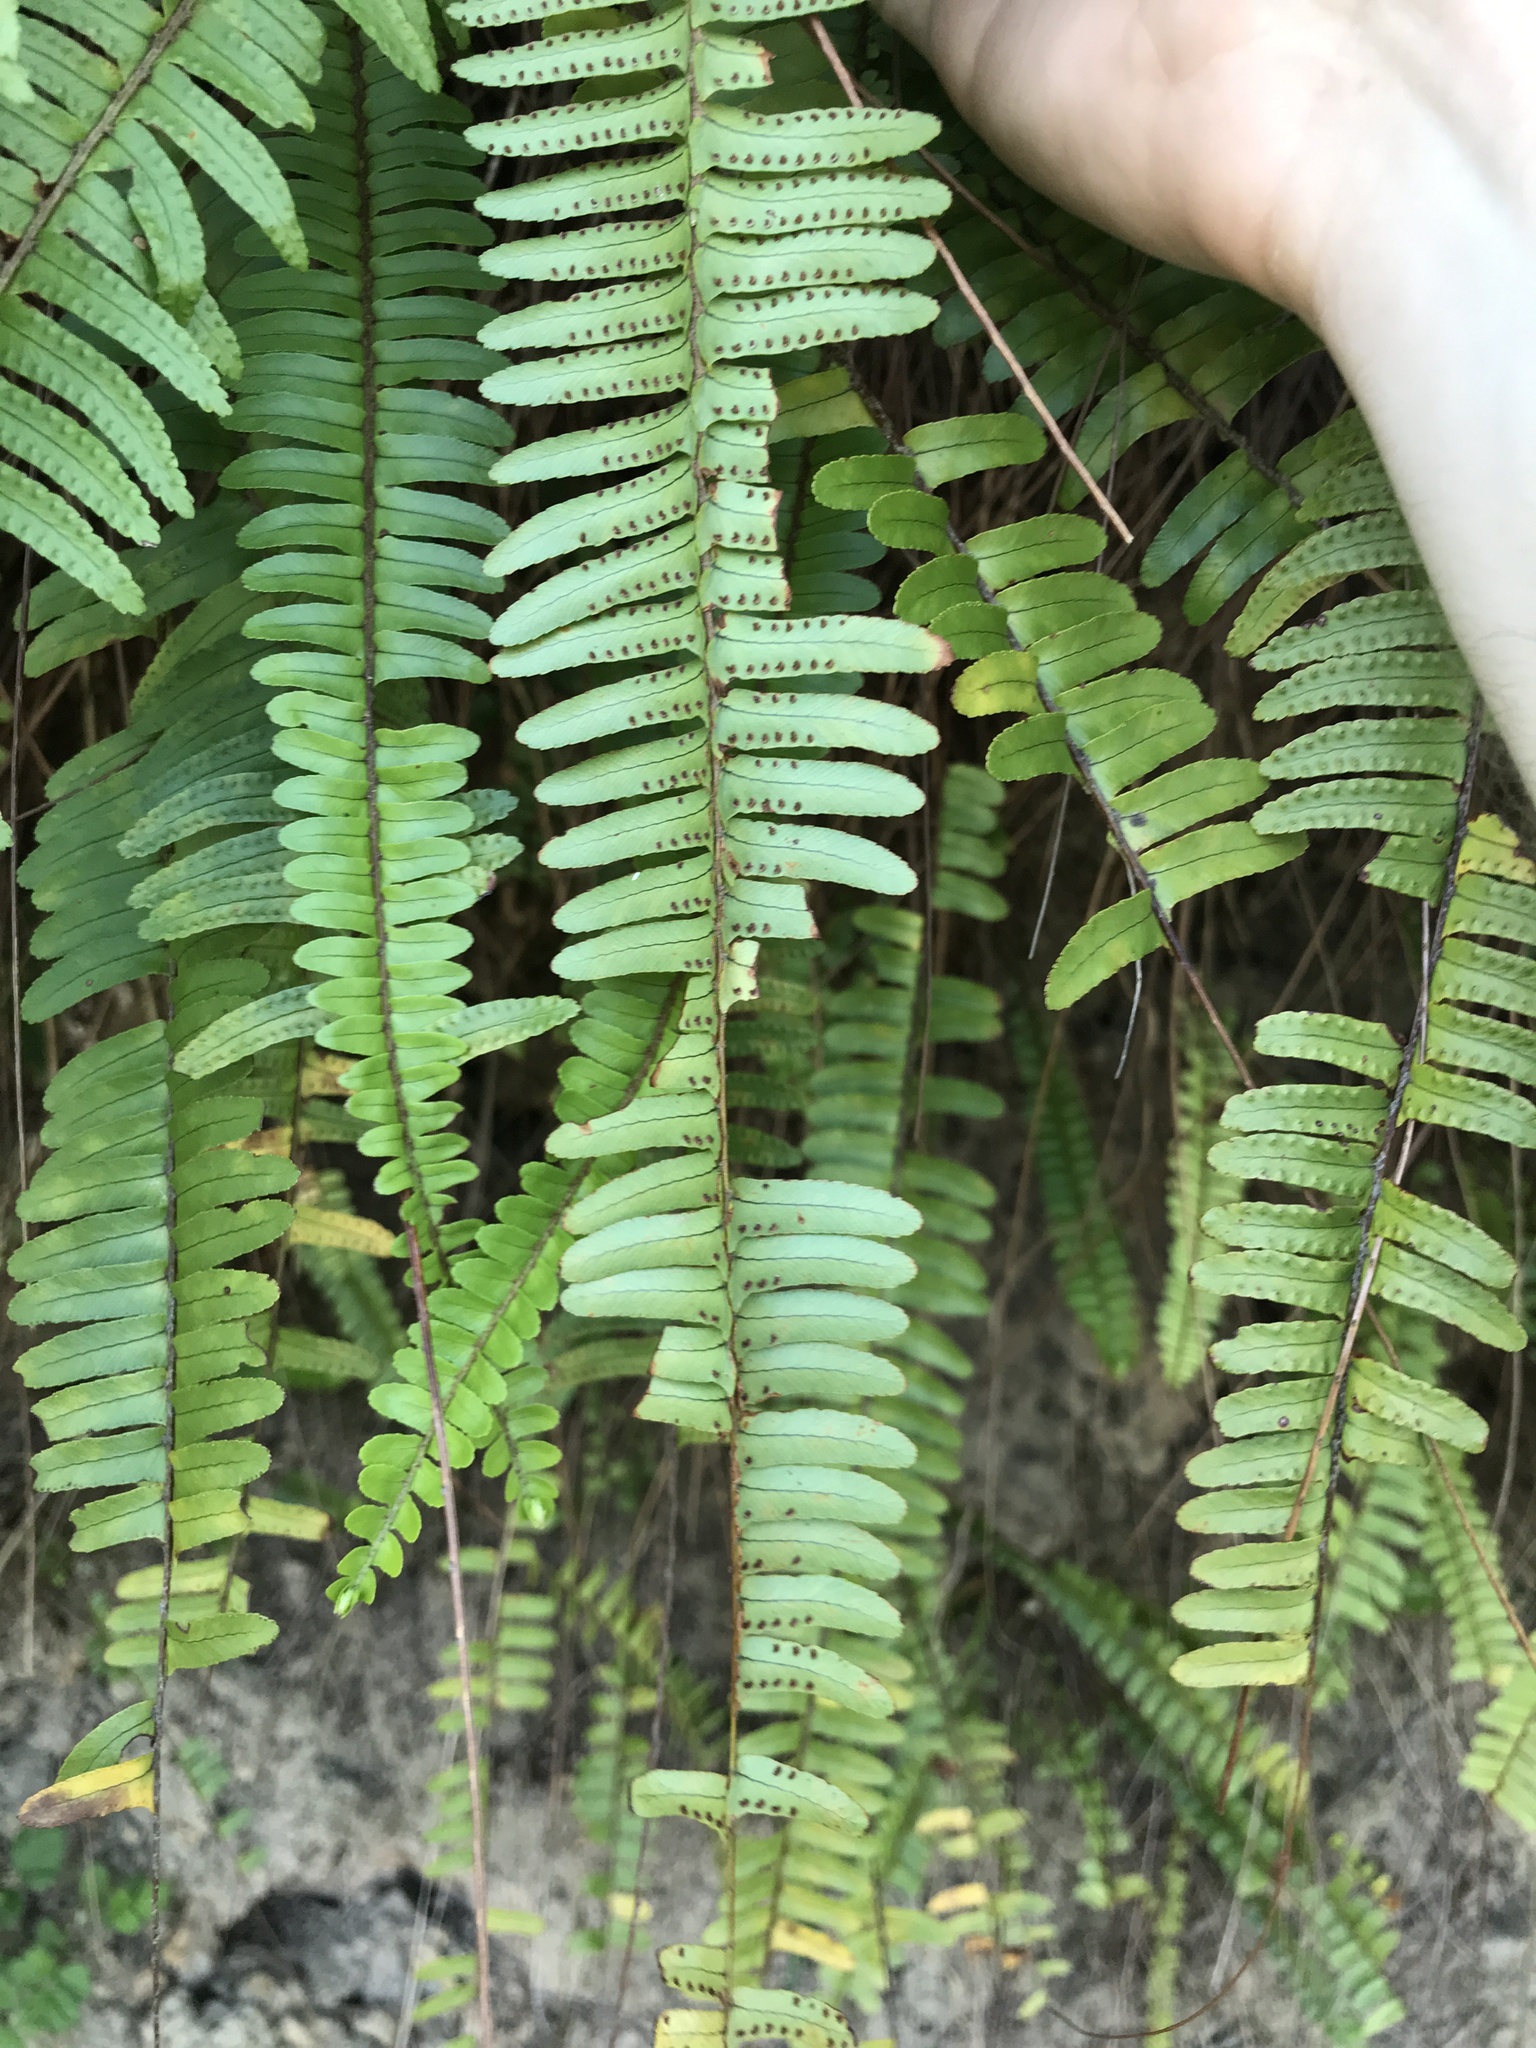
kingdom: Plantae
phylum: Tracheophyta
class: Polypodiopsida
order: Polypodiales
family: Nephrolepidaceae
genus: Nephrolepis
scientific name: Nephrolepis cordifolia
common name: Narrow swordfern
